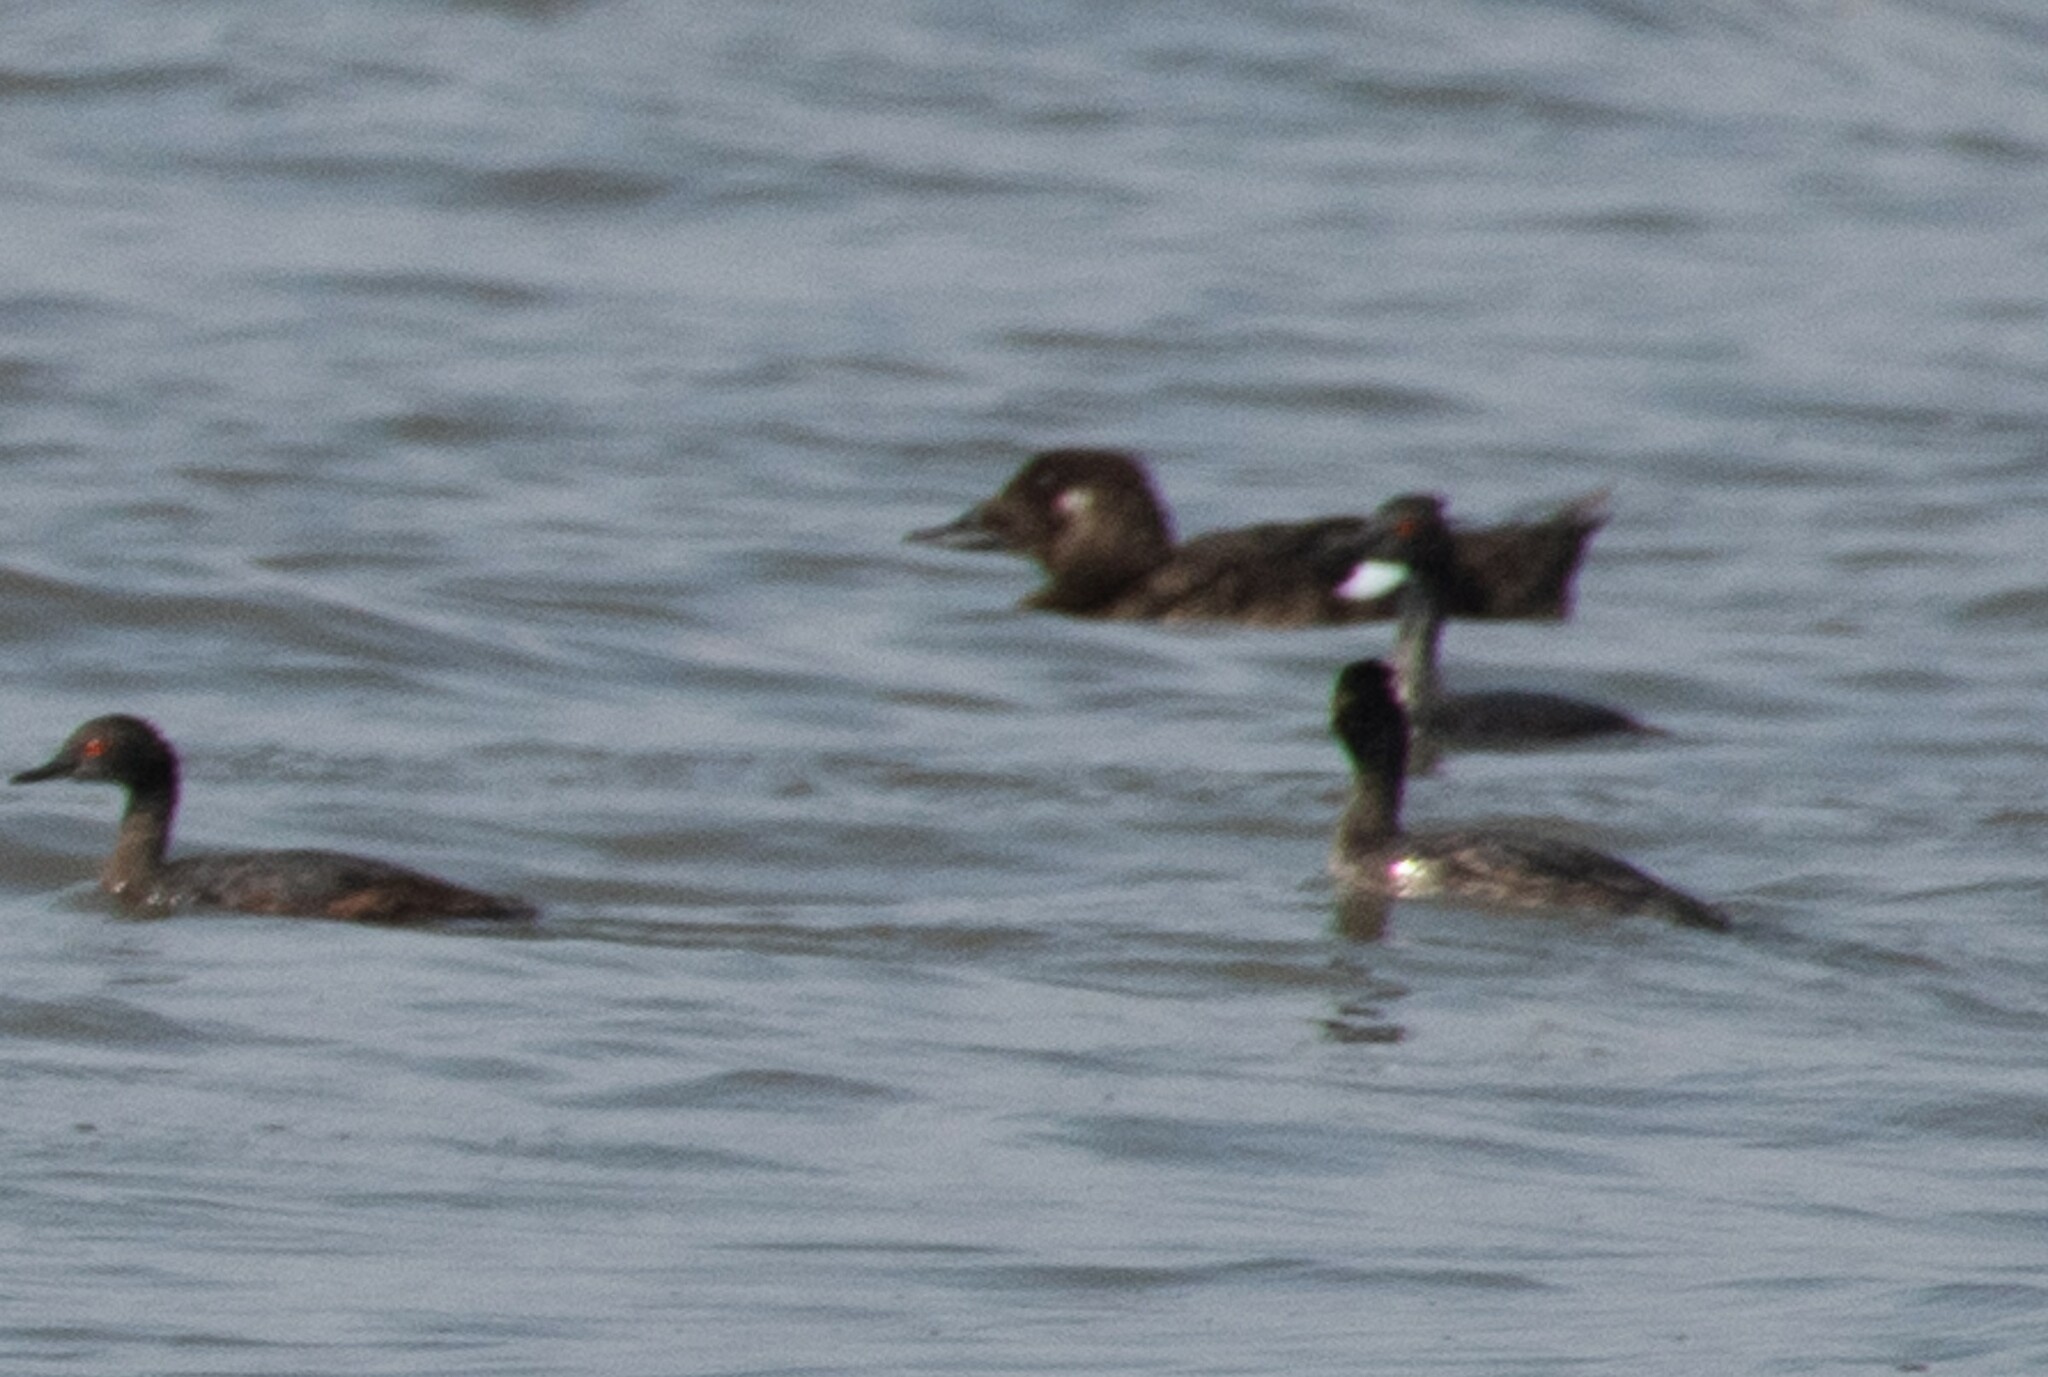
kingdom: Animalia
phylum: Chordata
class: Aves
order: Anseriformes
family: Anatidae
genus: Melanitta
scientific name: Melanitta deglandi
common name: White-winged scoter
